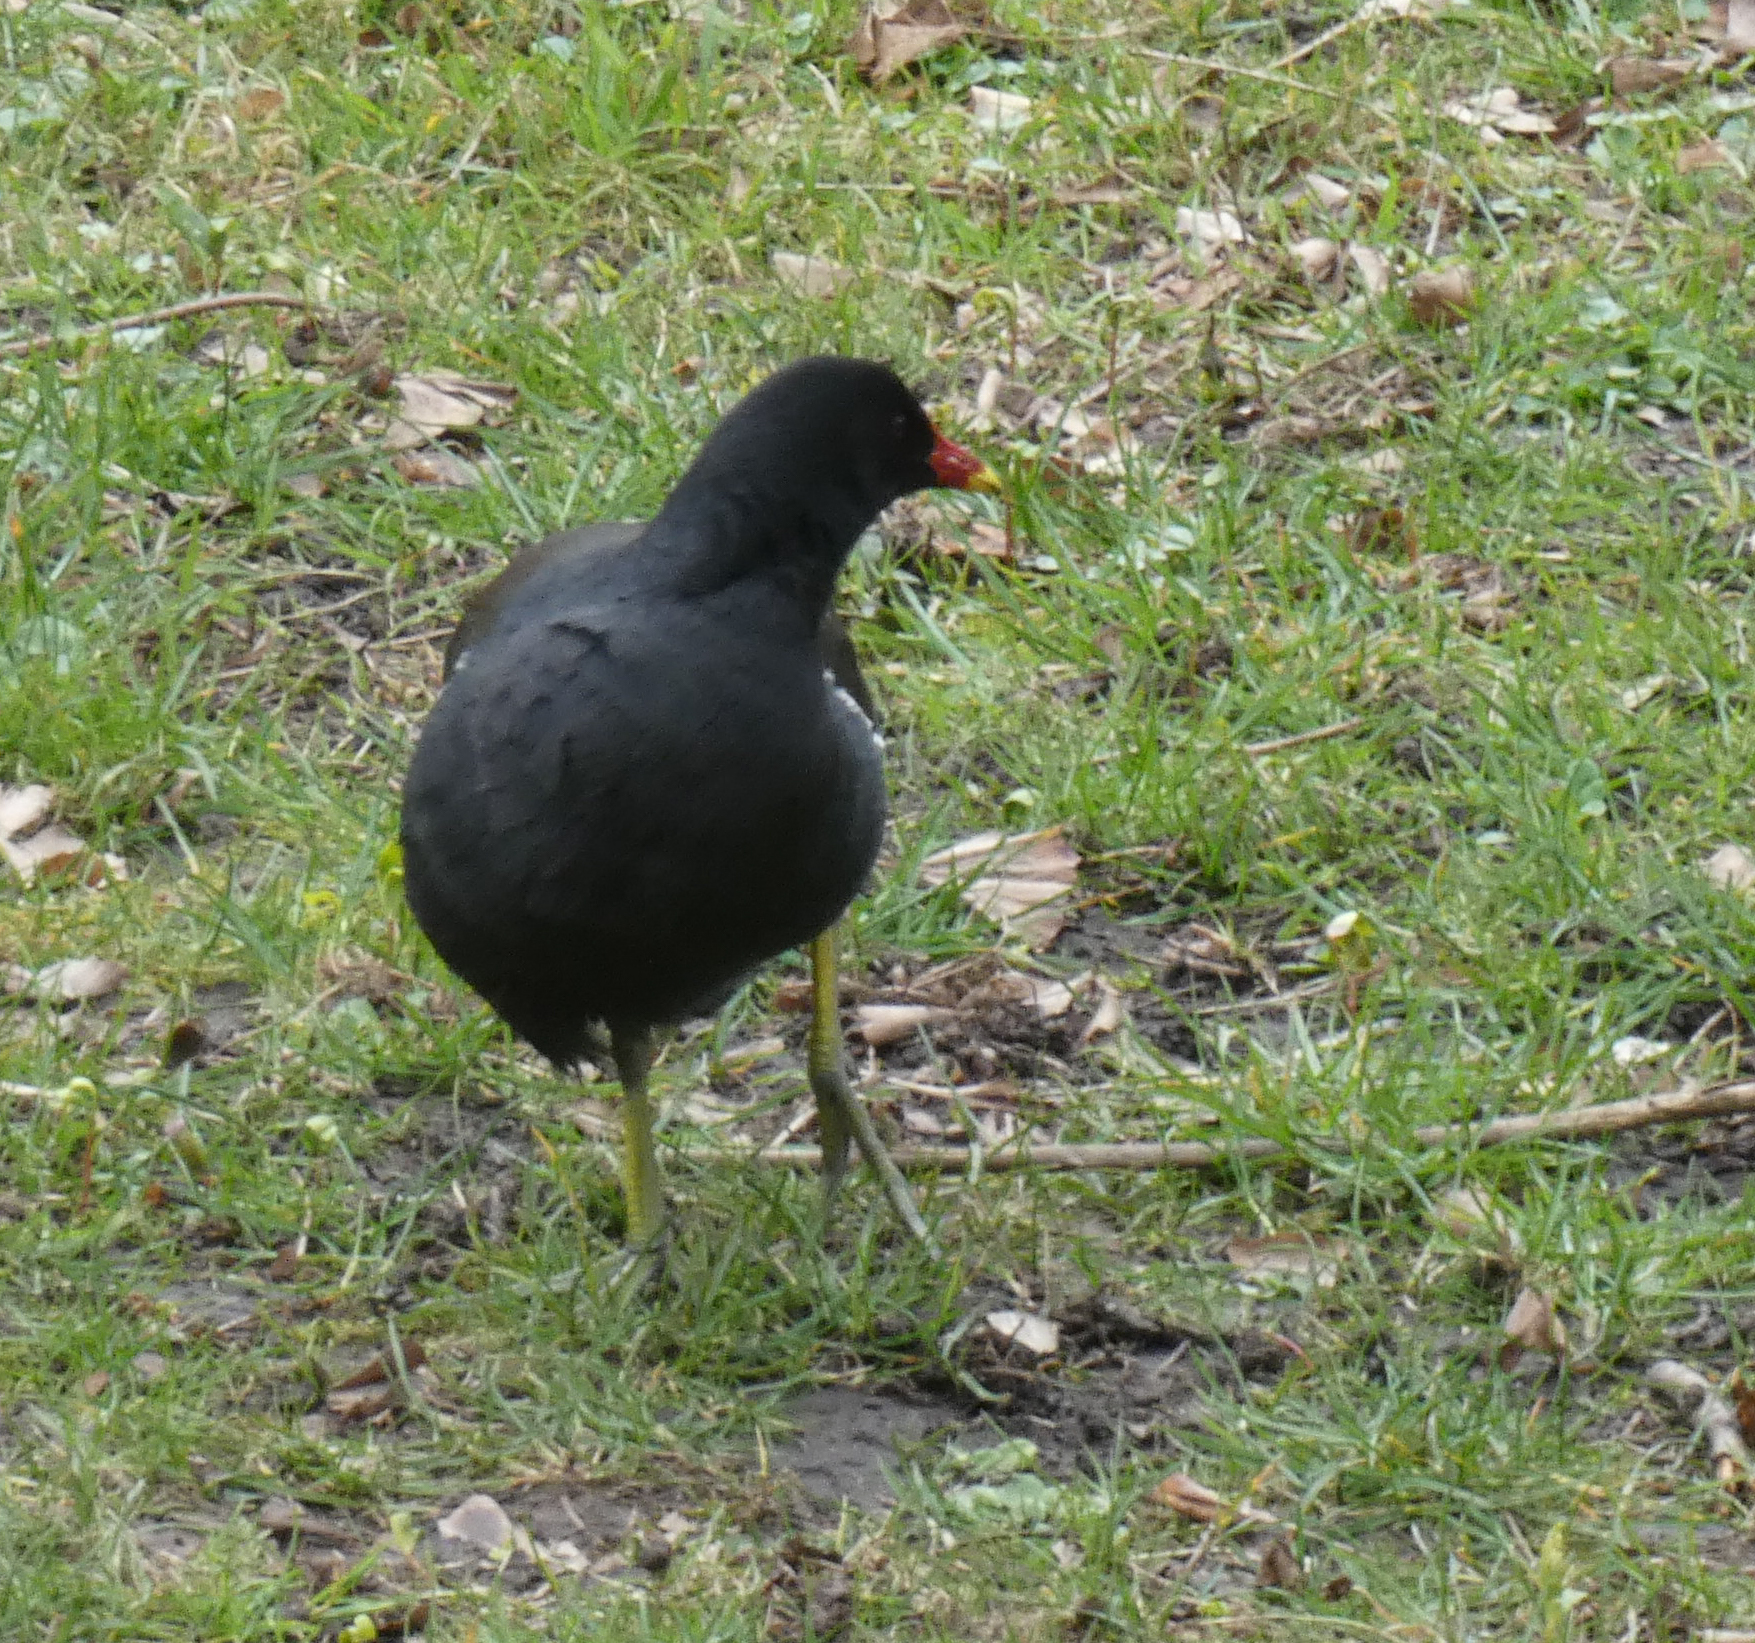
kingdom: Animalia
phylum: Chordata
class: Aves
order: Gruiformes
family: Rallidae
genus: Gallinula
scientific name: Gallinula chloropus
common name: Common moorhen
